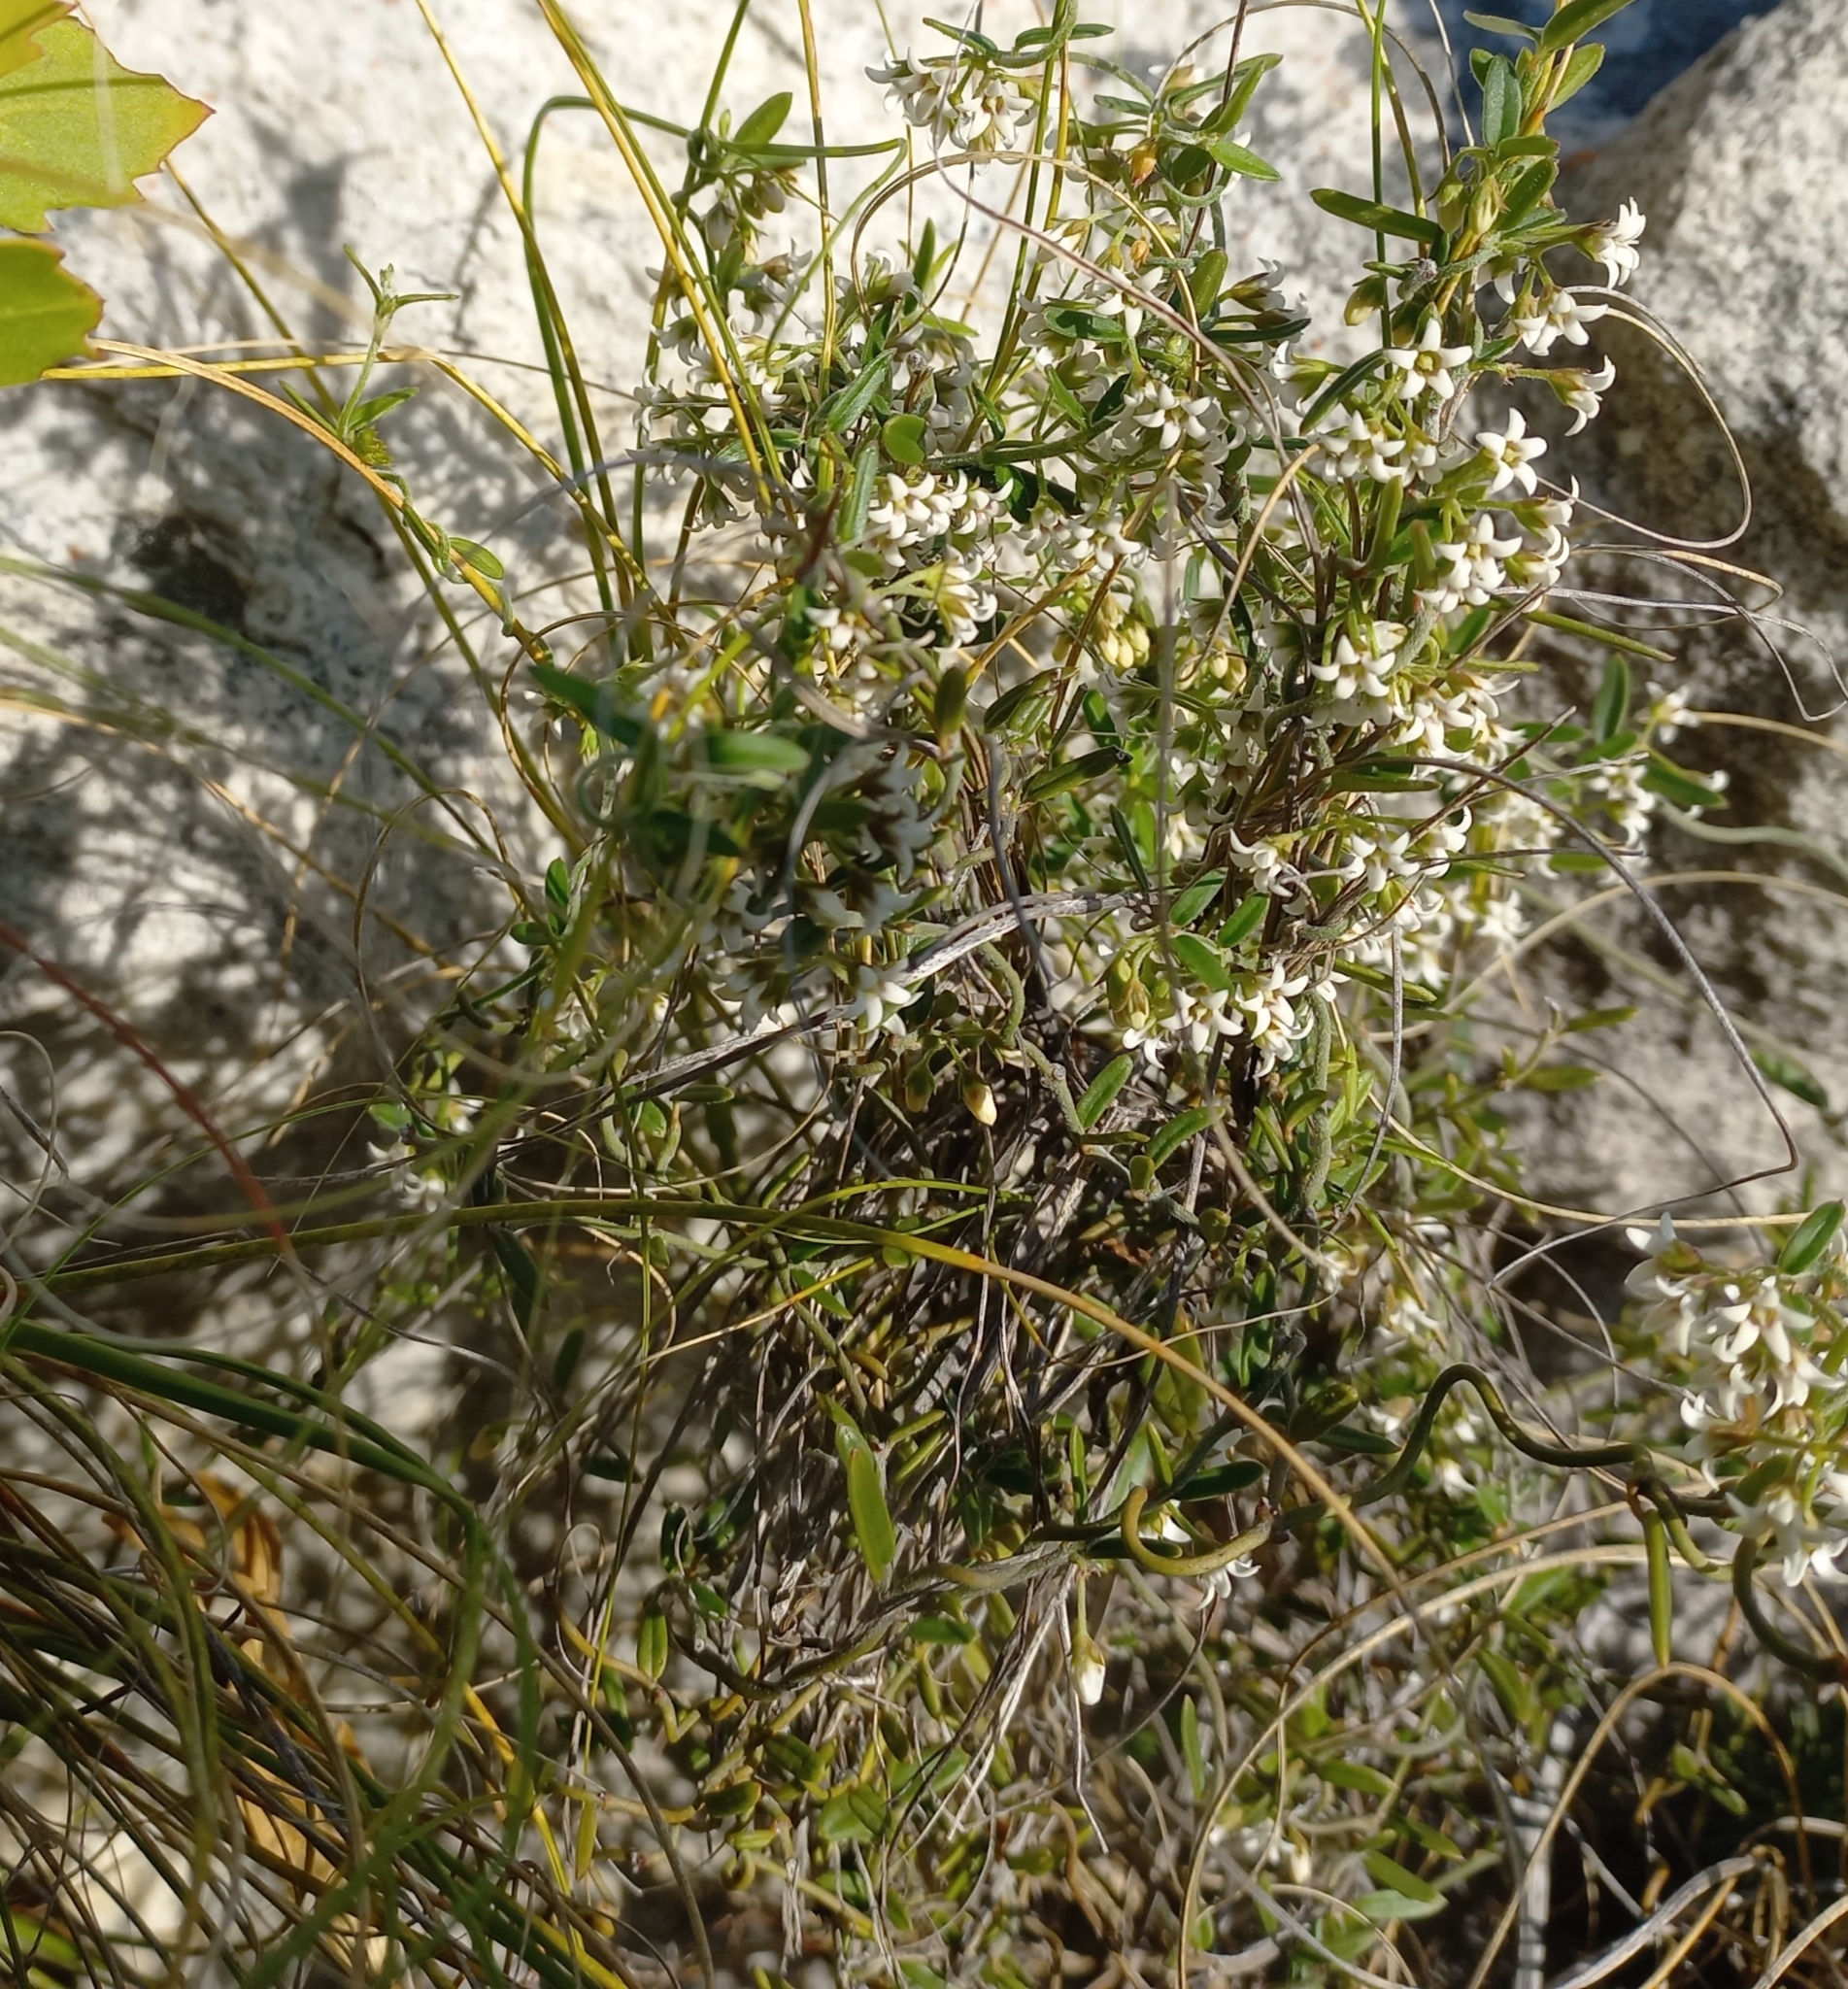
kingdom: Plantae
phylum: Tracheophyta
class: Magnoliopsida
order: Gentianales
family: Apocynaceae
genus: Astephanus
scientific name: Astephanus triflorus
